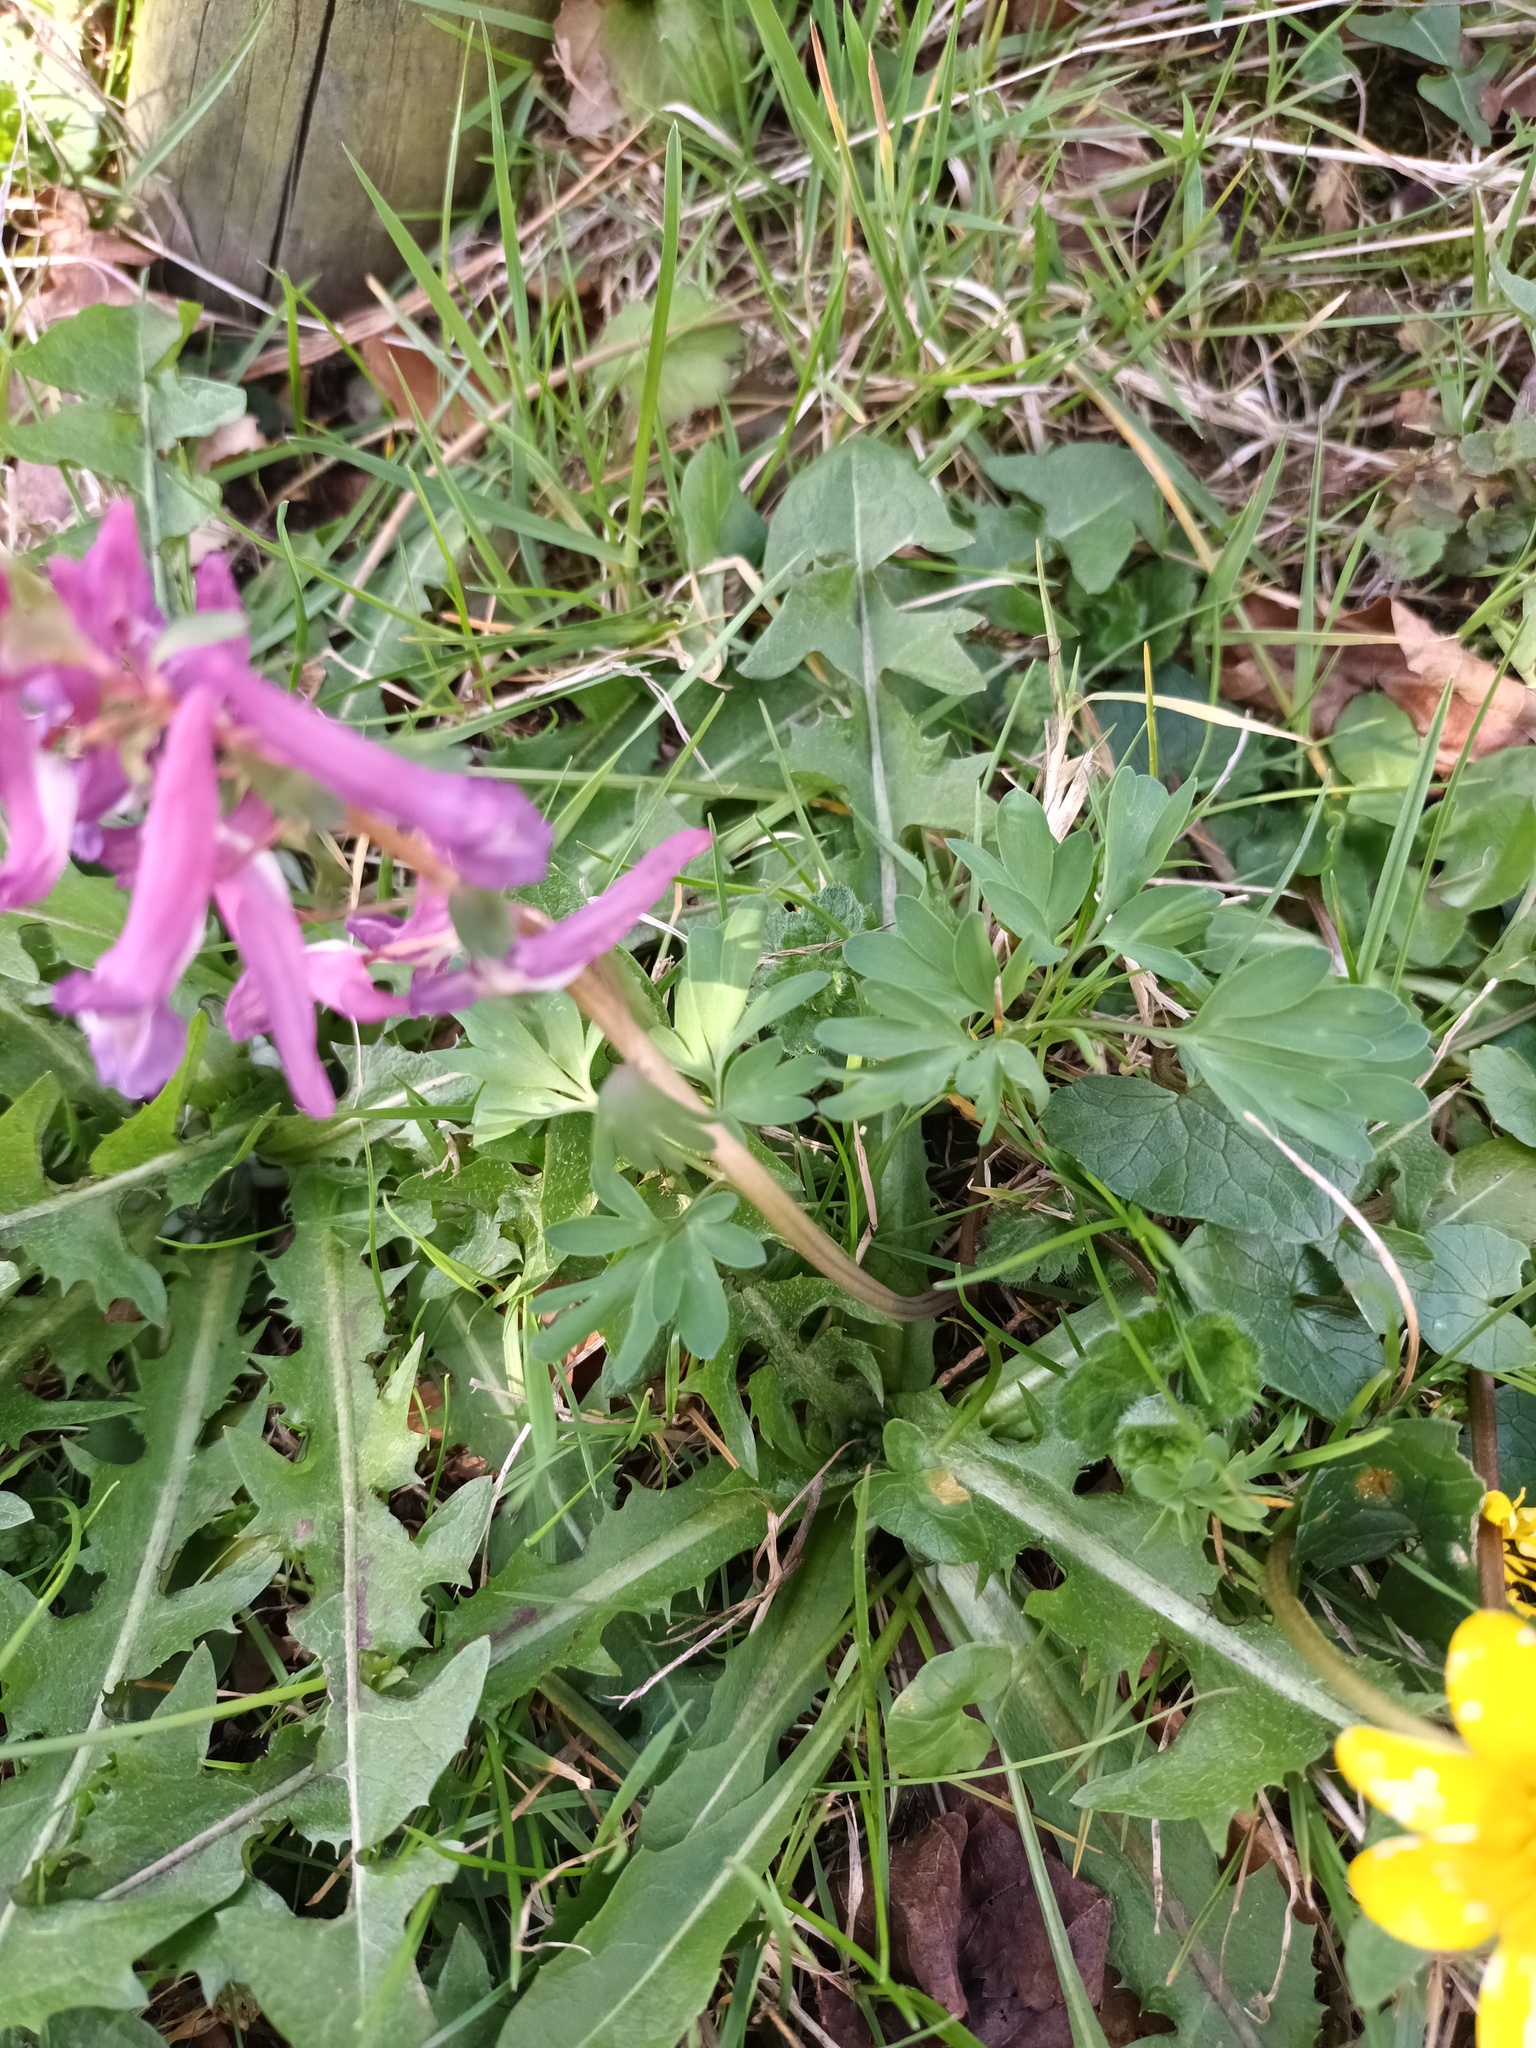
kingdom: Plantae
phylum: Tracheophyta
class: Magnoliopsida
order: Ranunculales
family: Papaveraceae
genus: Corydalis
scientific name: Corydalis solida
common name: Bird-in-a-bush
